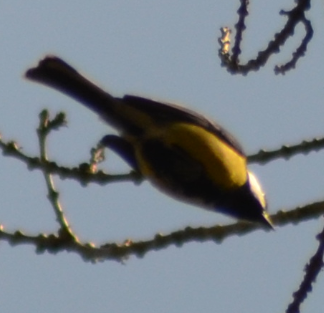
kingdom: Animalia
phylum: Chordata
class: Aves
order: Passeriformes
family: Paridae
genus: Parus
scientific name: Parus major
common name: Great tit
